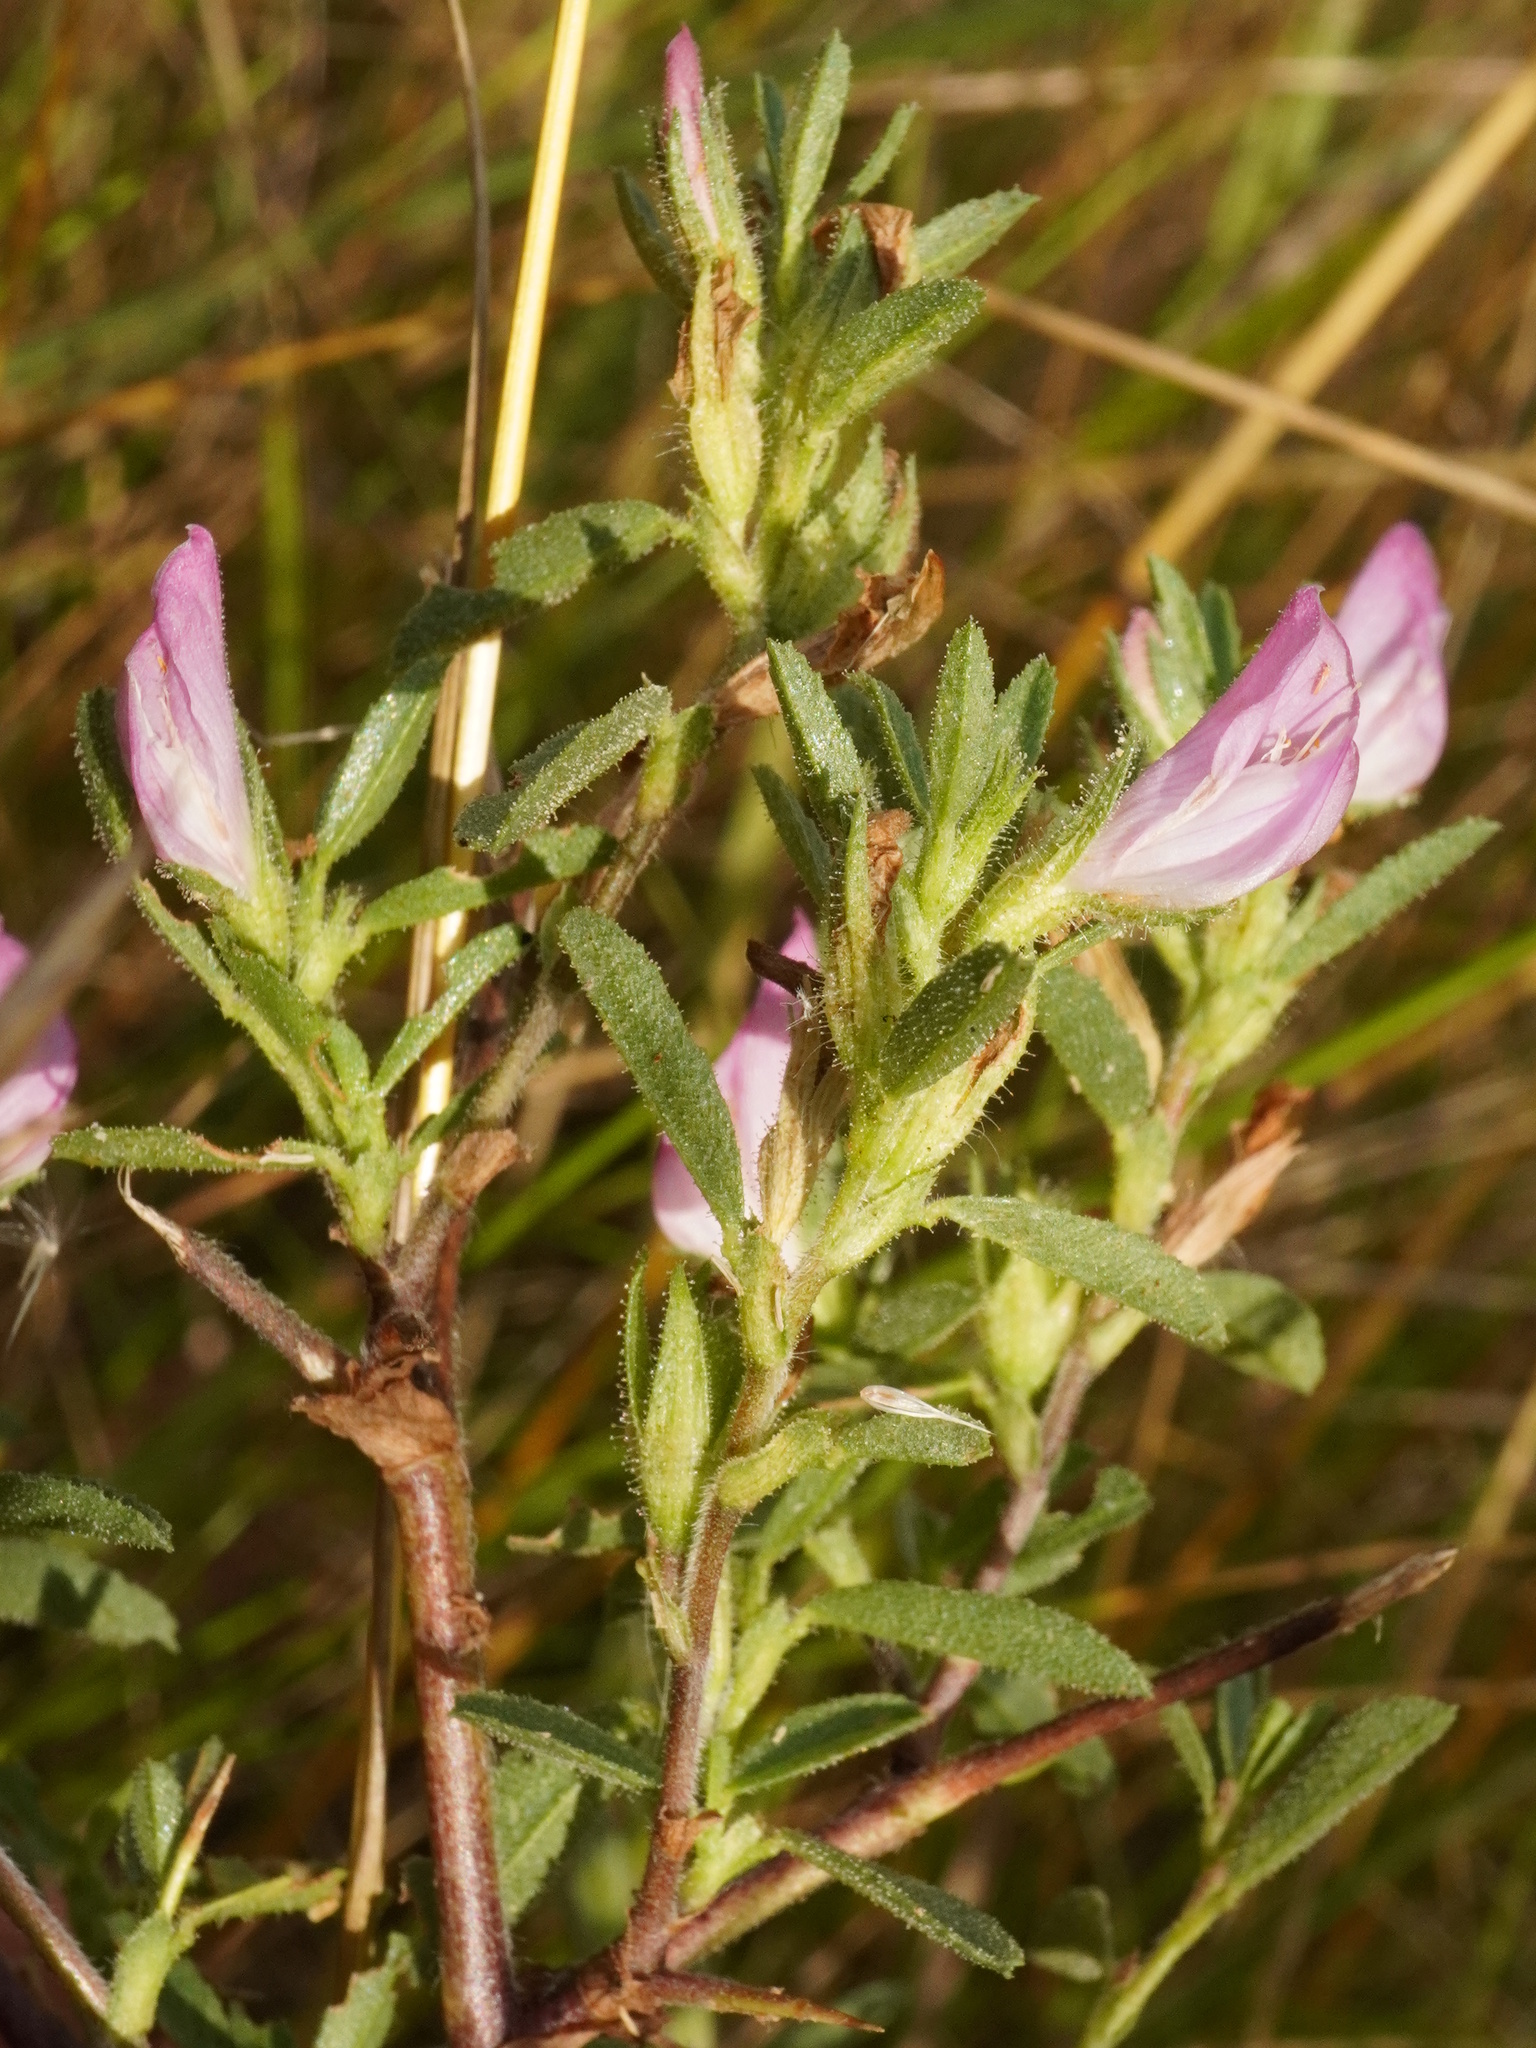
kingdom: Plantae
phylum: Tracheophyta
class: Magnoliopsida
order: Fabales
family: Fabaceae
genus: Ononis
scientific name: Ononis spinosa
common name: Spiny restharrow
